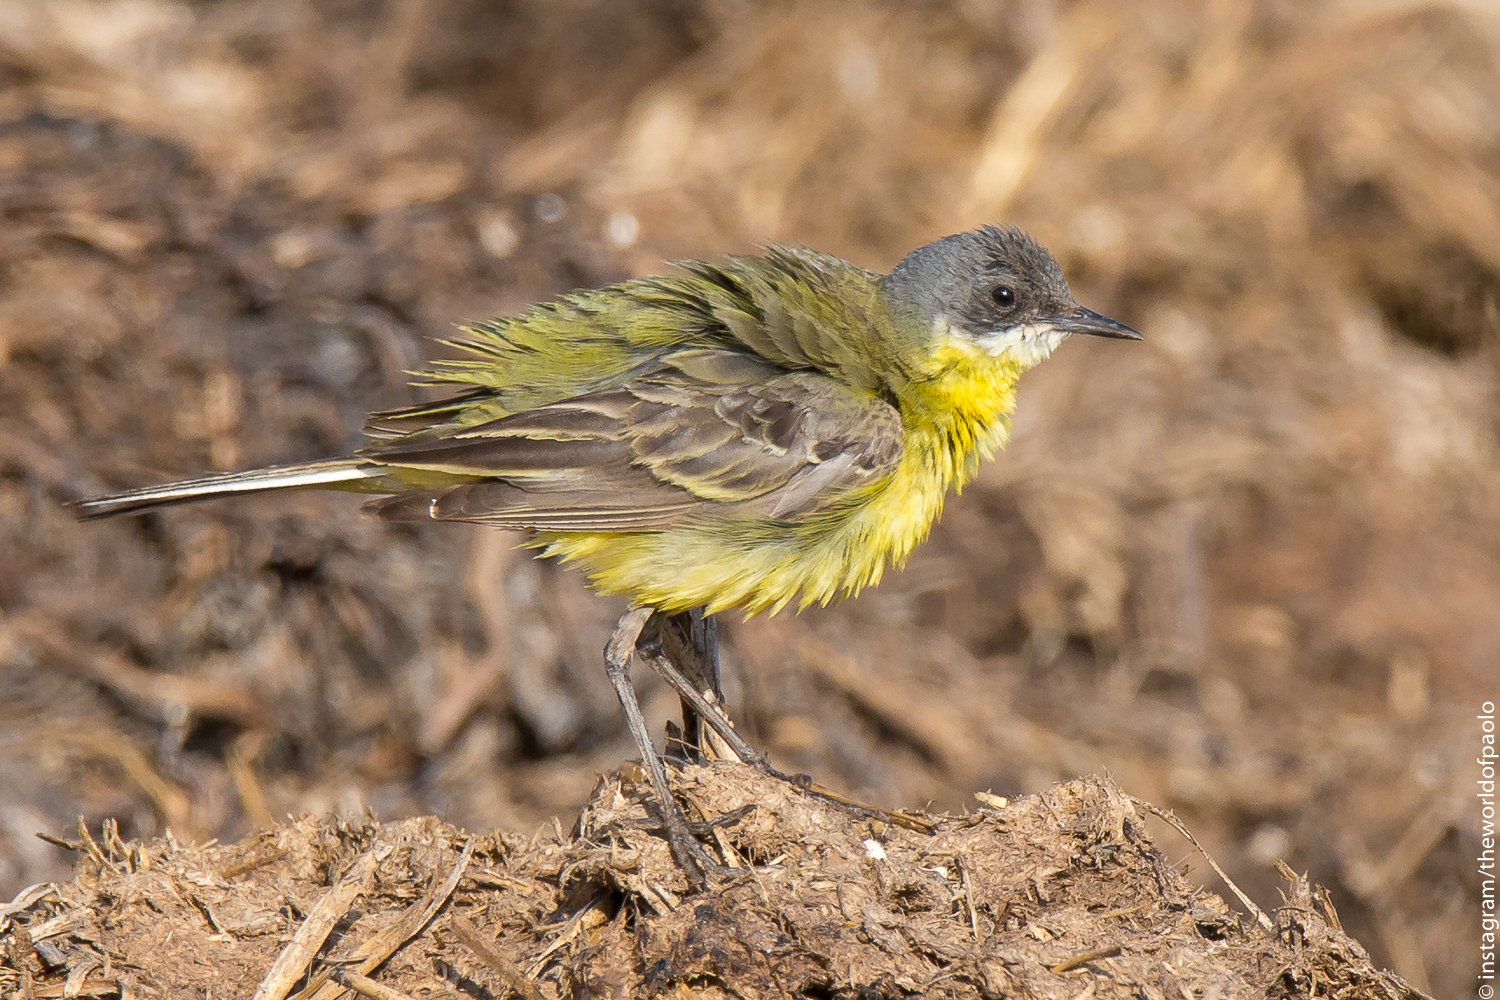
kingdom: Animalia
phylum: Chordata
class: Aves
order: Passeriformes
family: Motacillidae
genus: Motacilla
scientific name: Motacilla flava
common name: Western yellow wagtail
